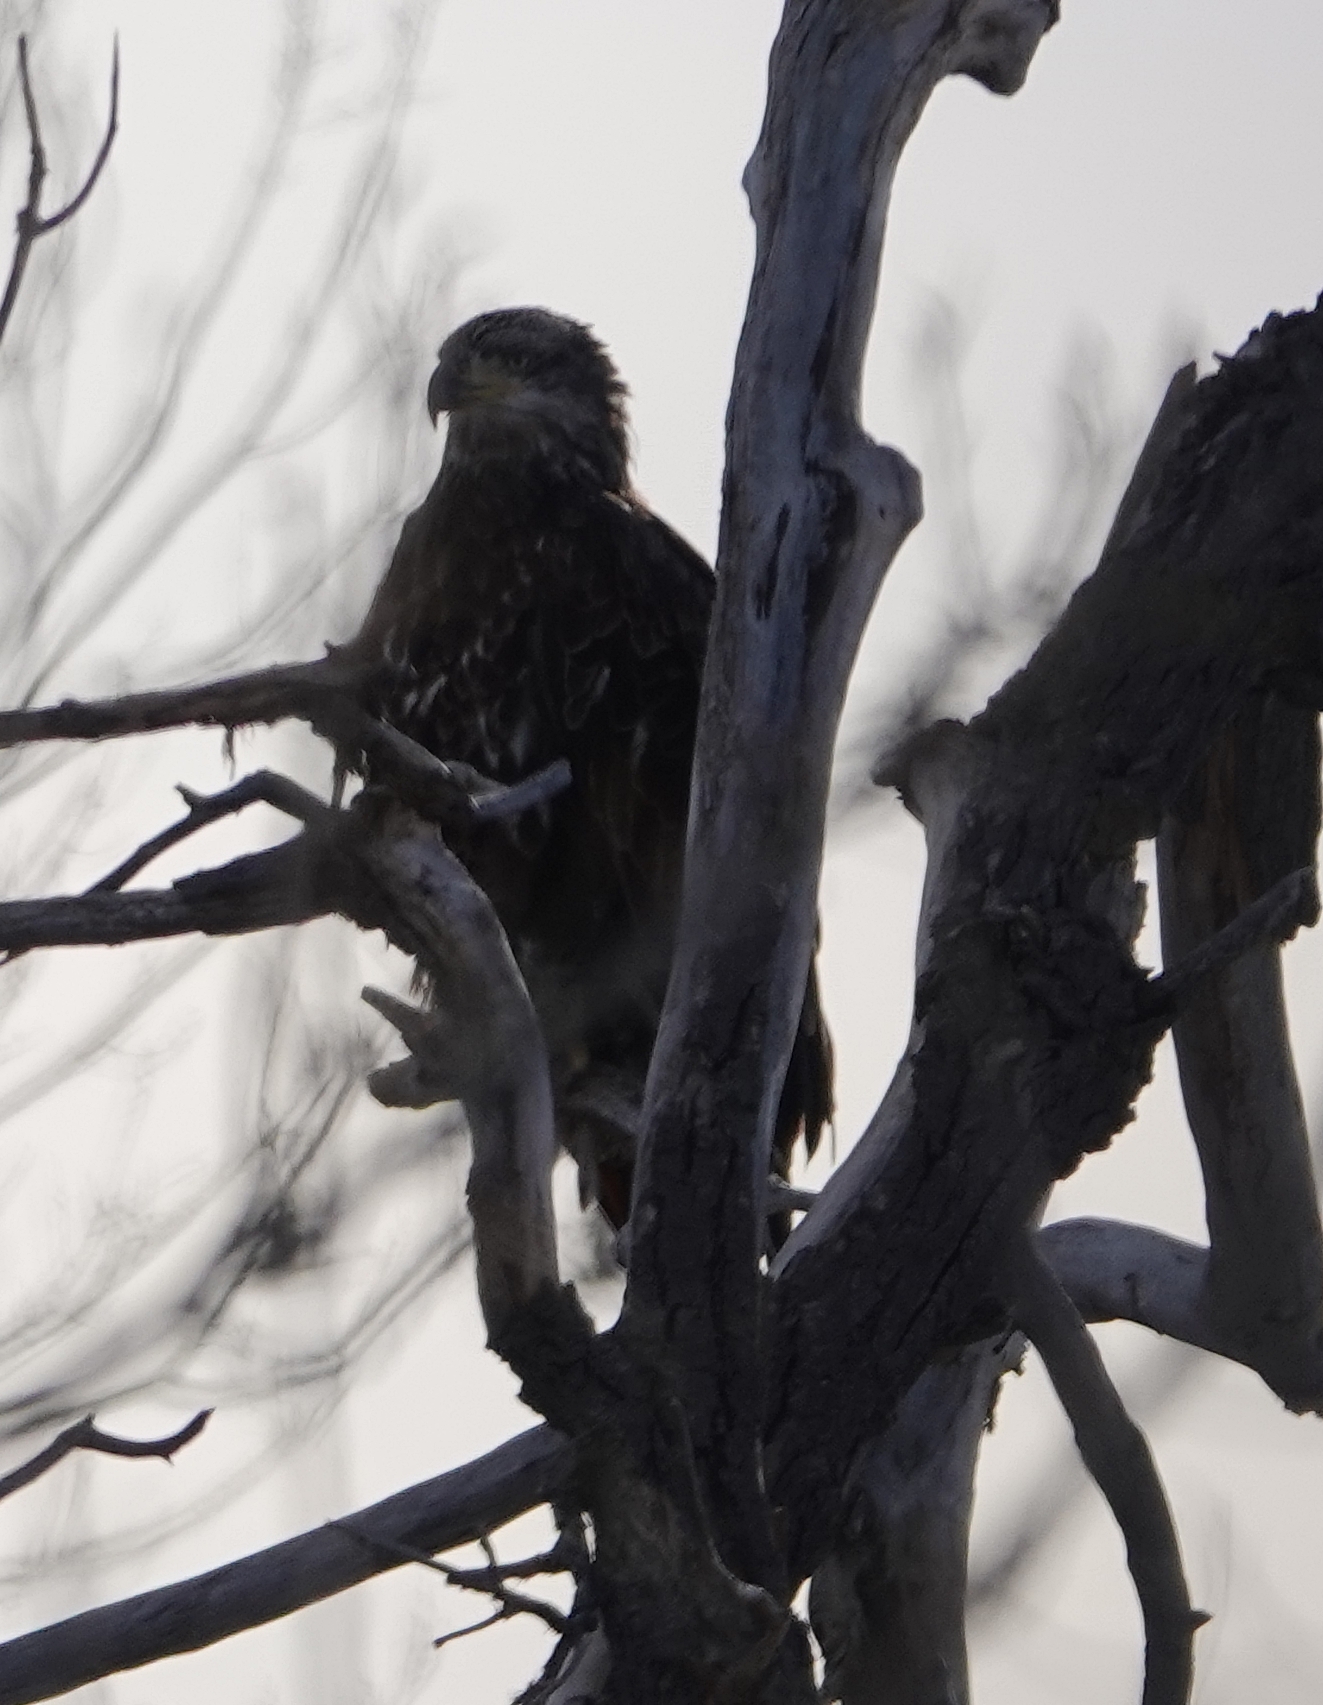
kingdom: Animalia
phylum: Chordata
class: Aves
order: Accipitriformes
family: Accipitridae
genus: Haliaeetus
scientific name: Haliaeetus leucocephalus
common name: Bald eagle
